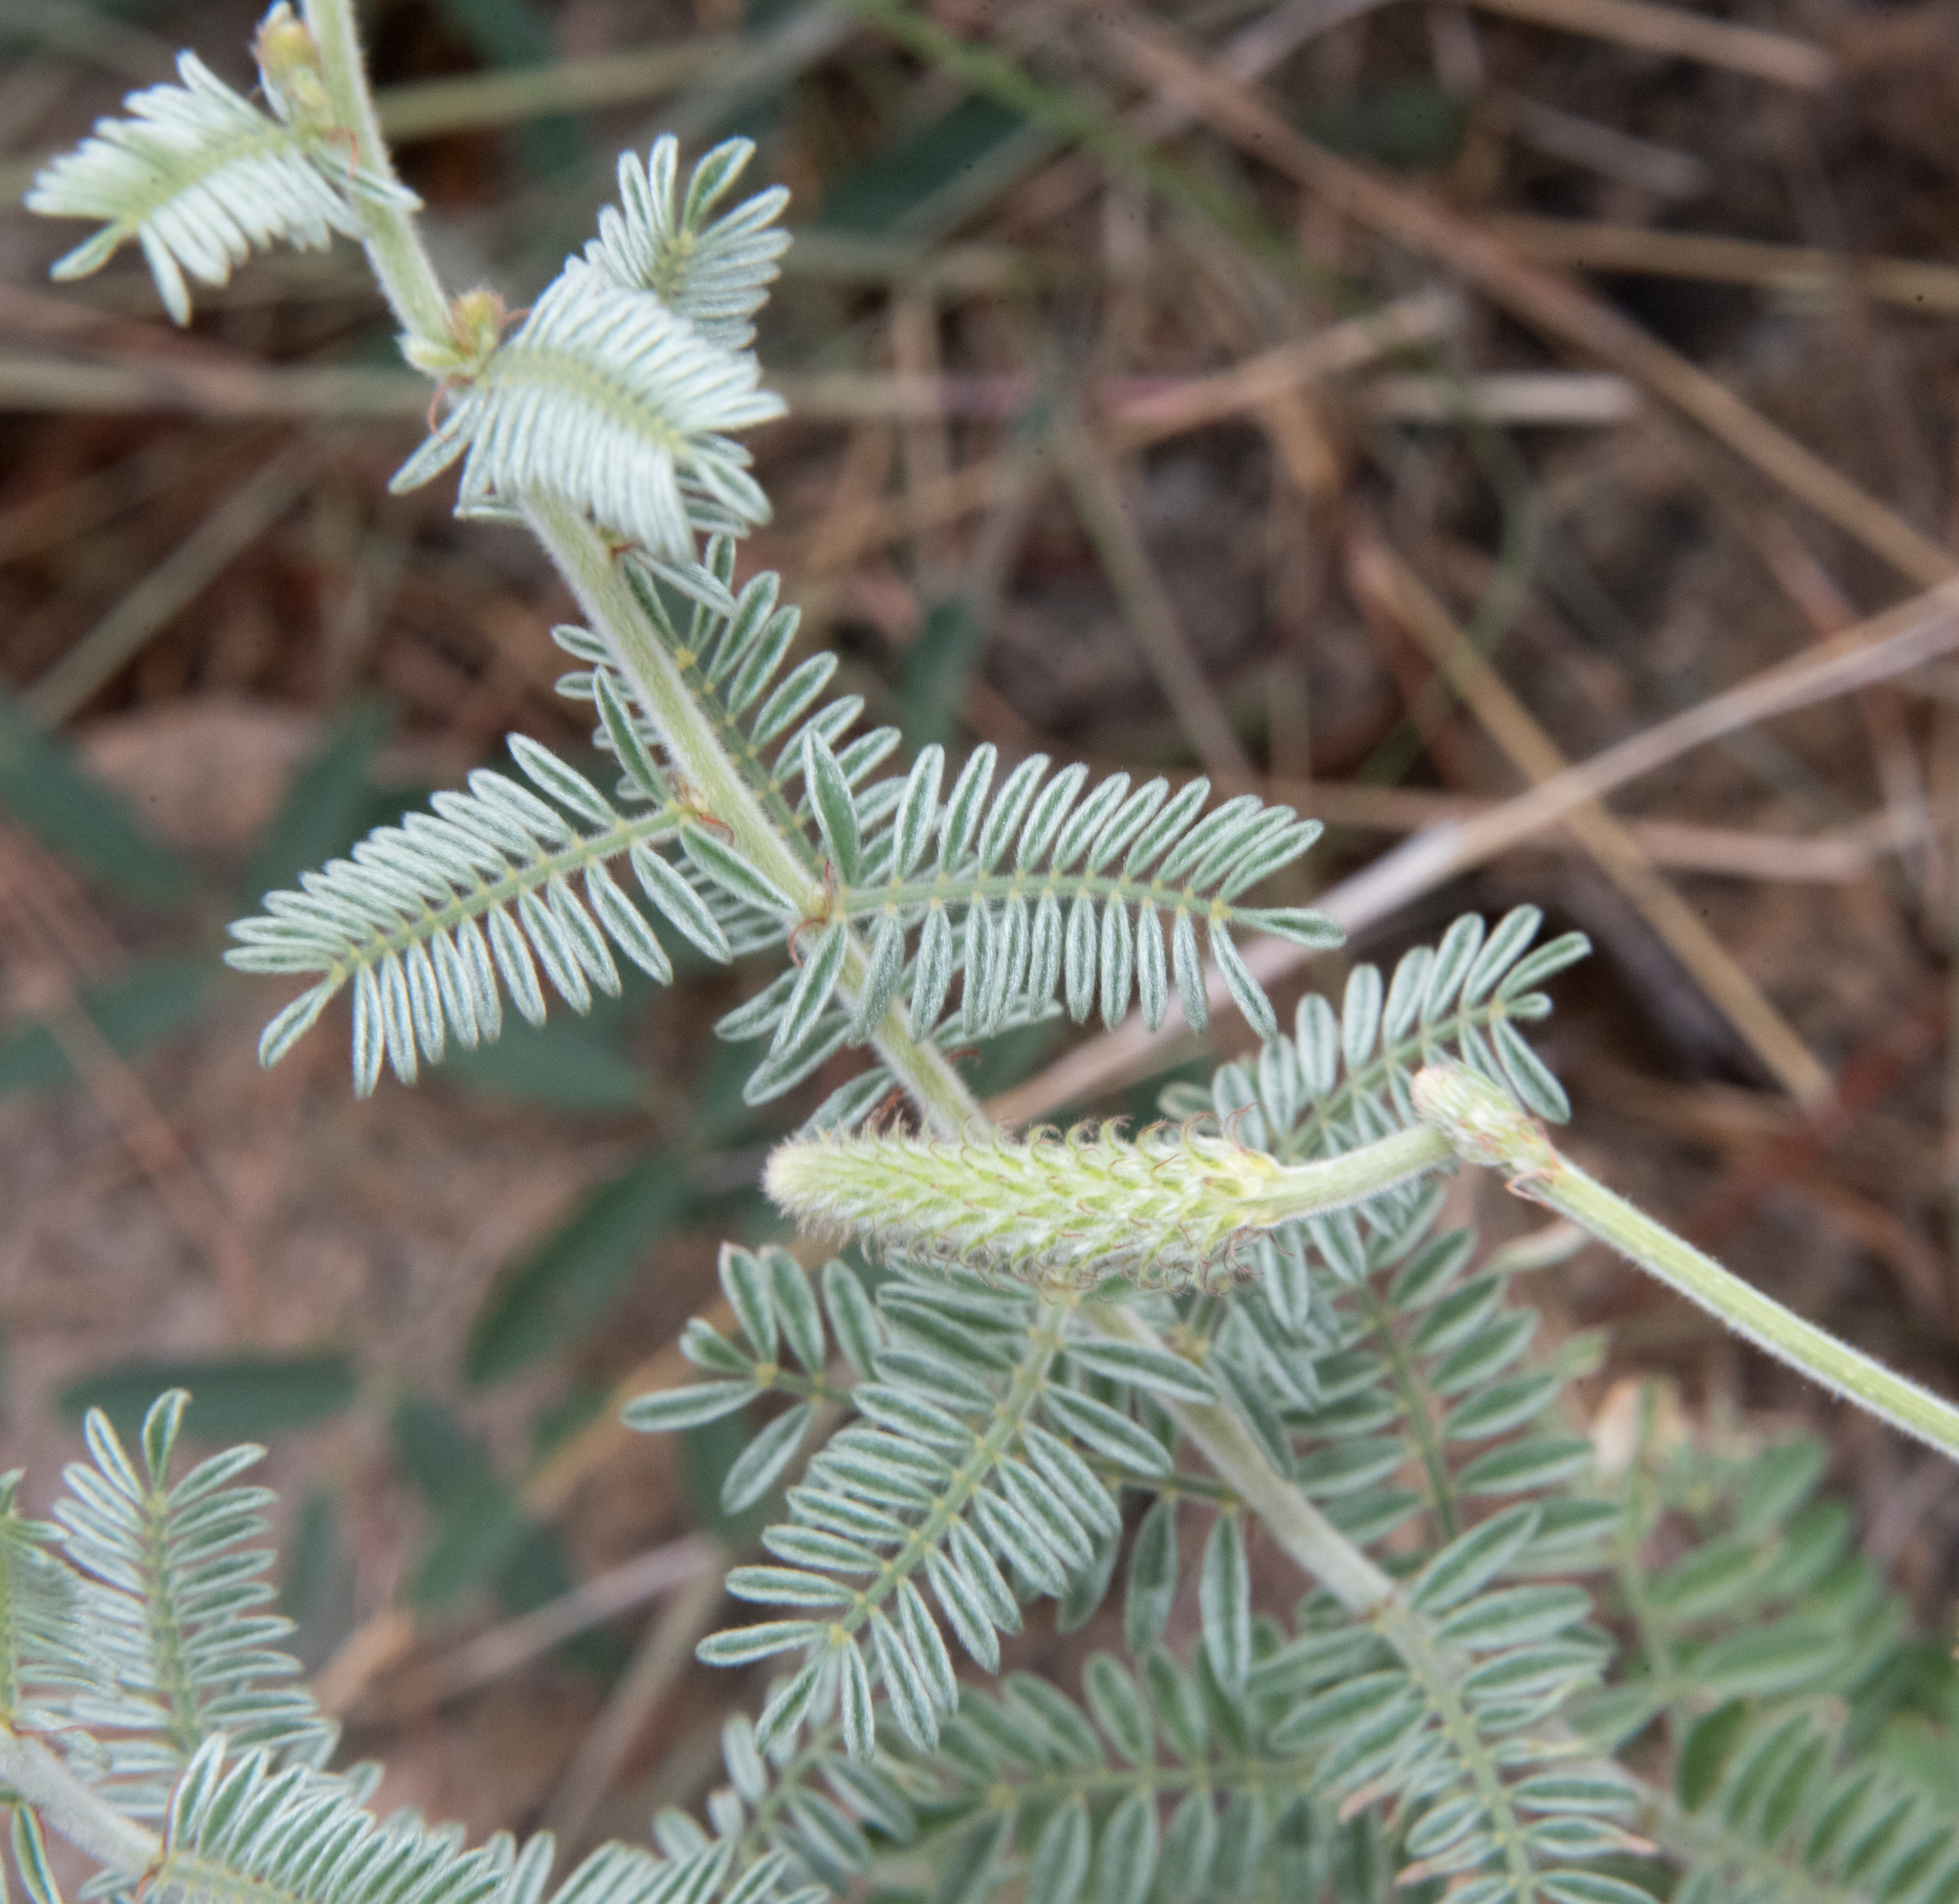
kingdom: Plantae
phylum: Tracheophyta
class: Magnoliopsida
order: Fabales
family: Fabaceae
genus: Dalea
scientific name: Dalea albiflora
